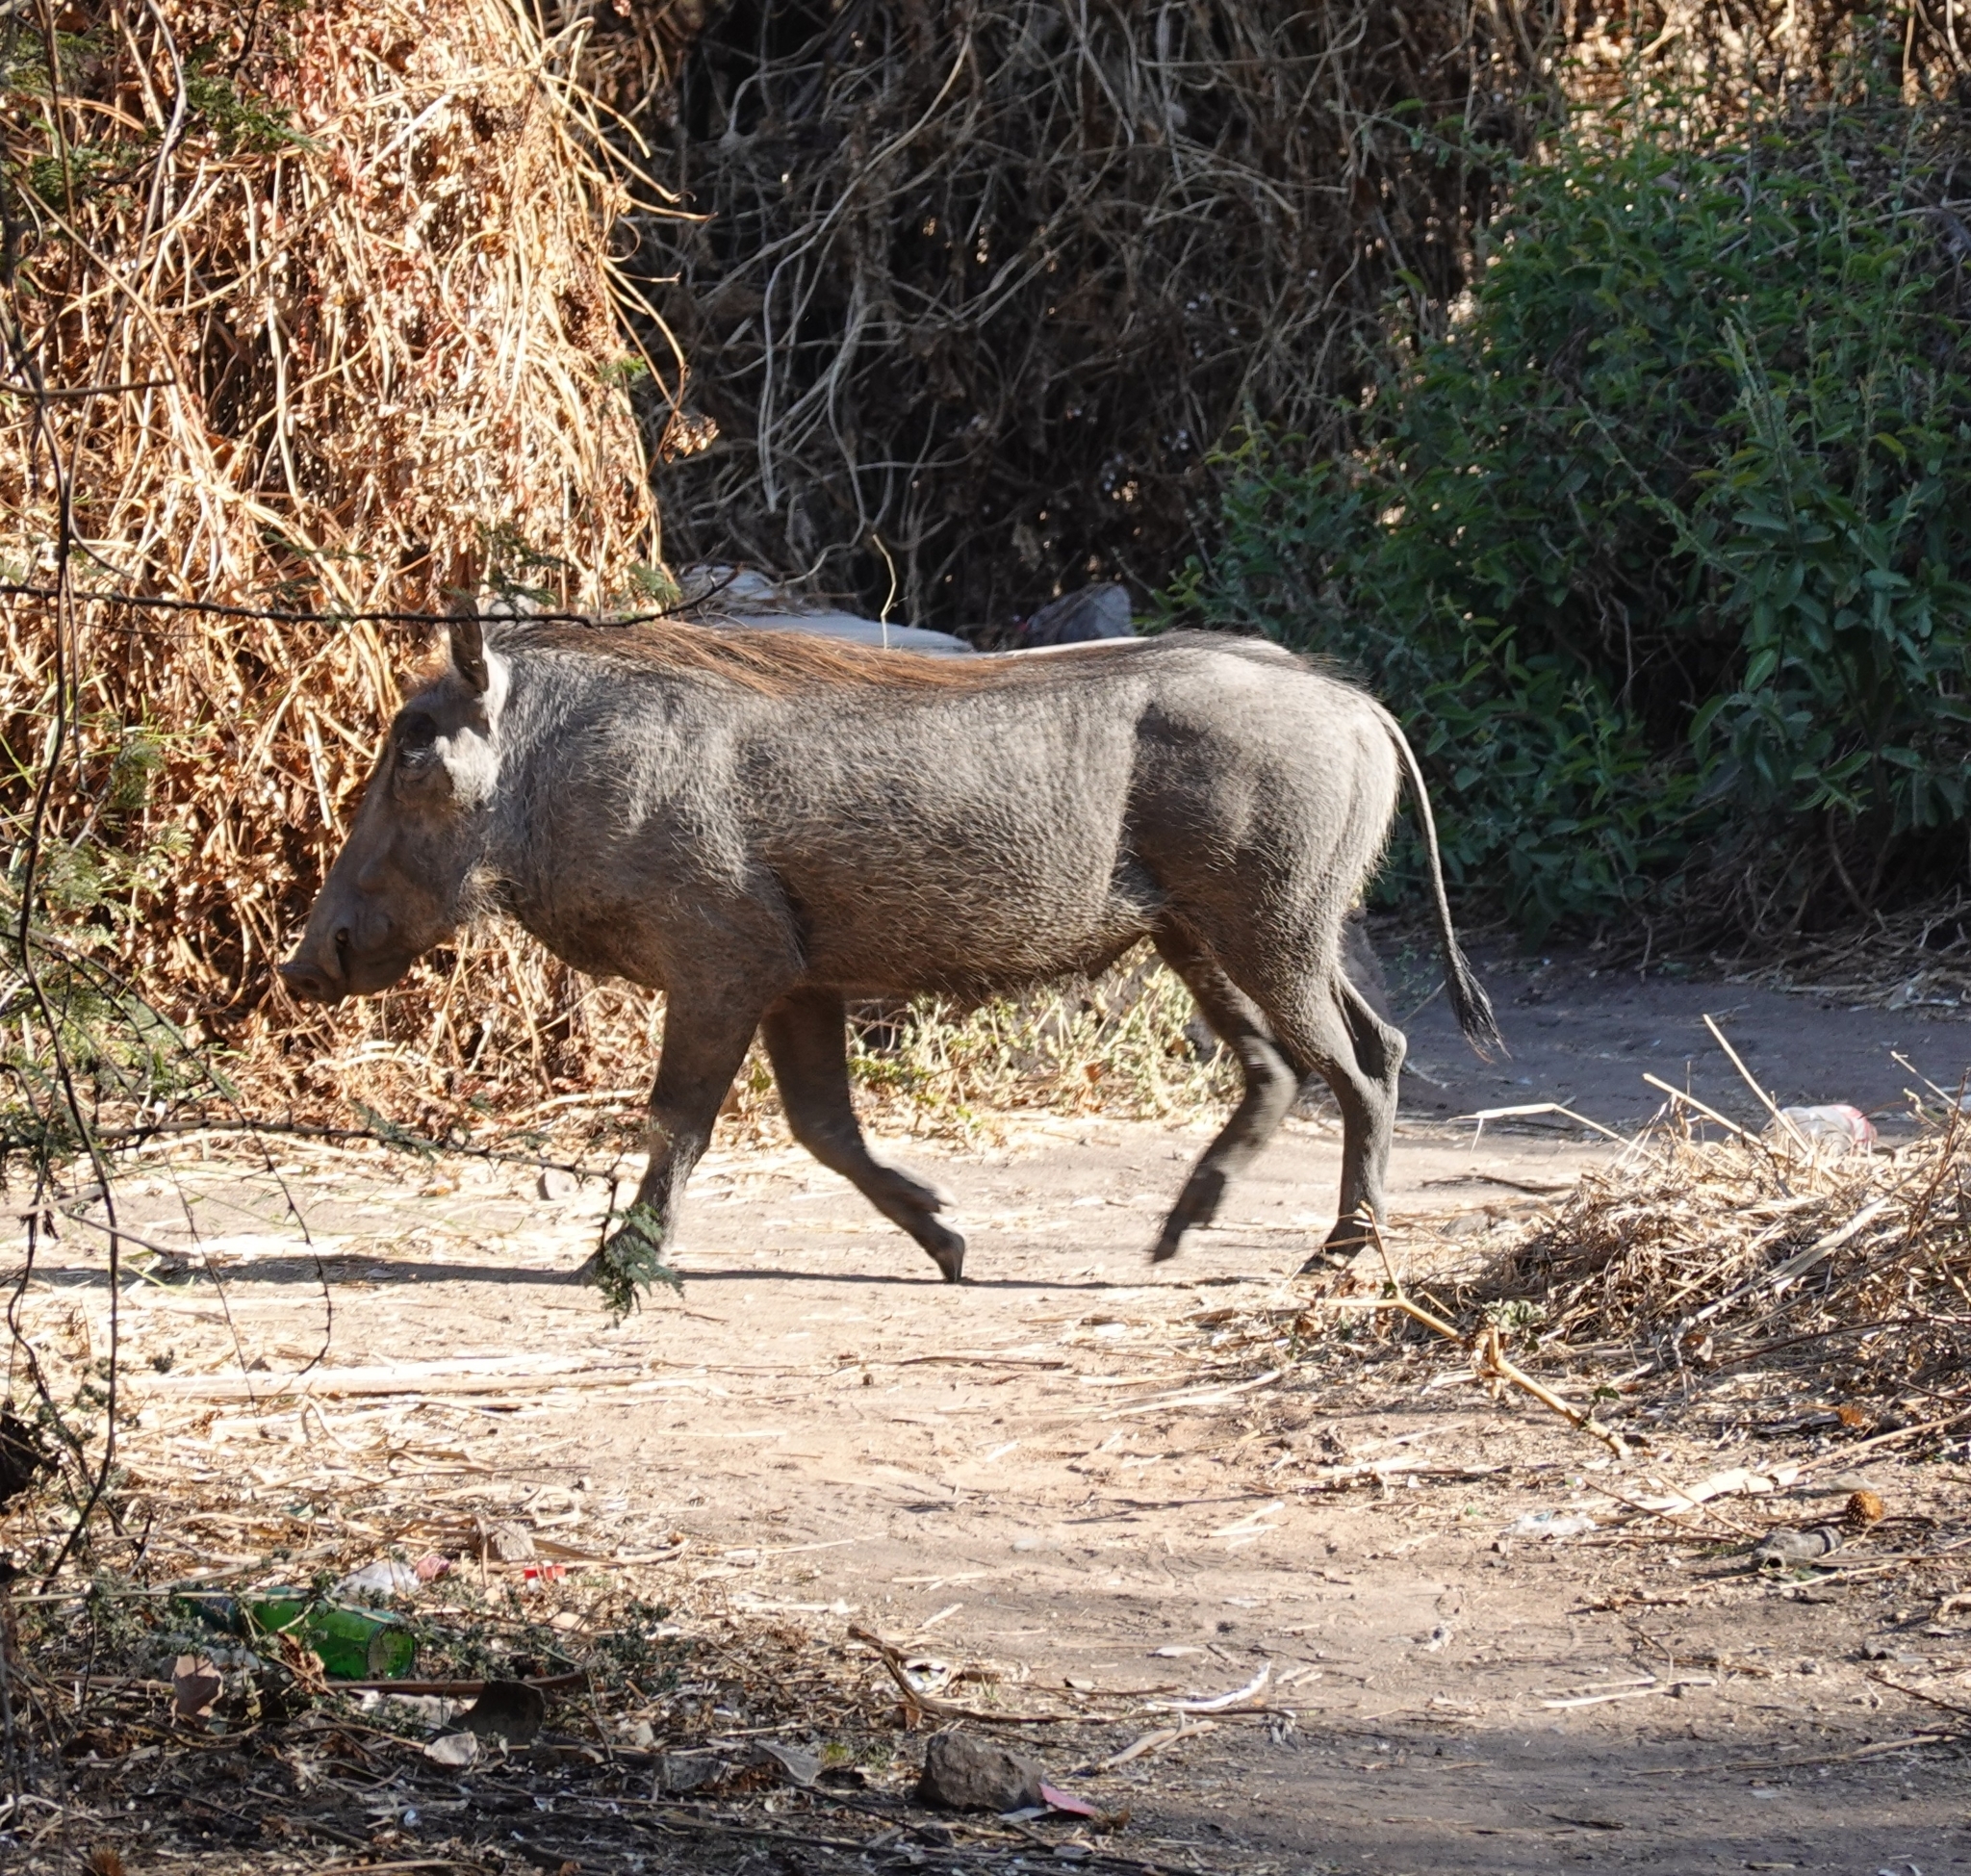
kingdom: Animalia
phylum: Chordata
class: Mammalia
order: Artiodactyla
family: Suidae
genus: Phacochoerus
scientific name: Phacochoerus africanus
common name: Common warthog
